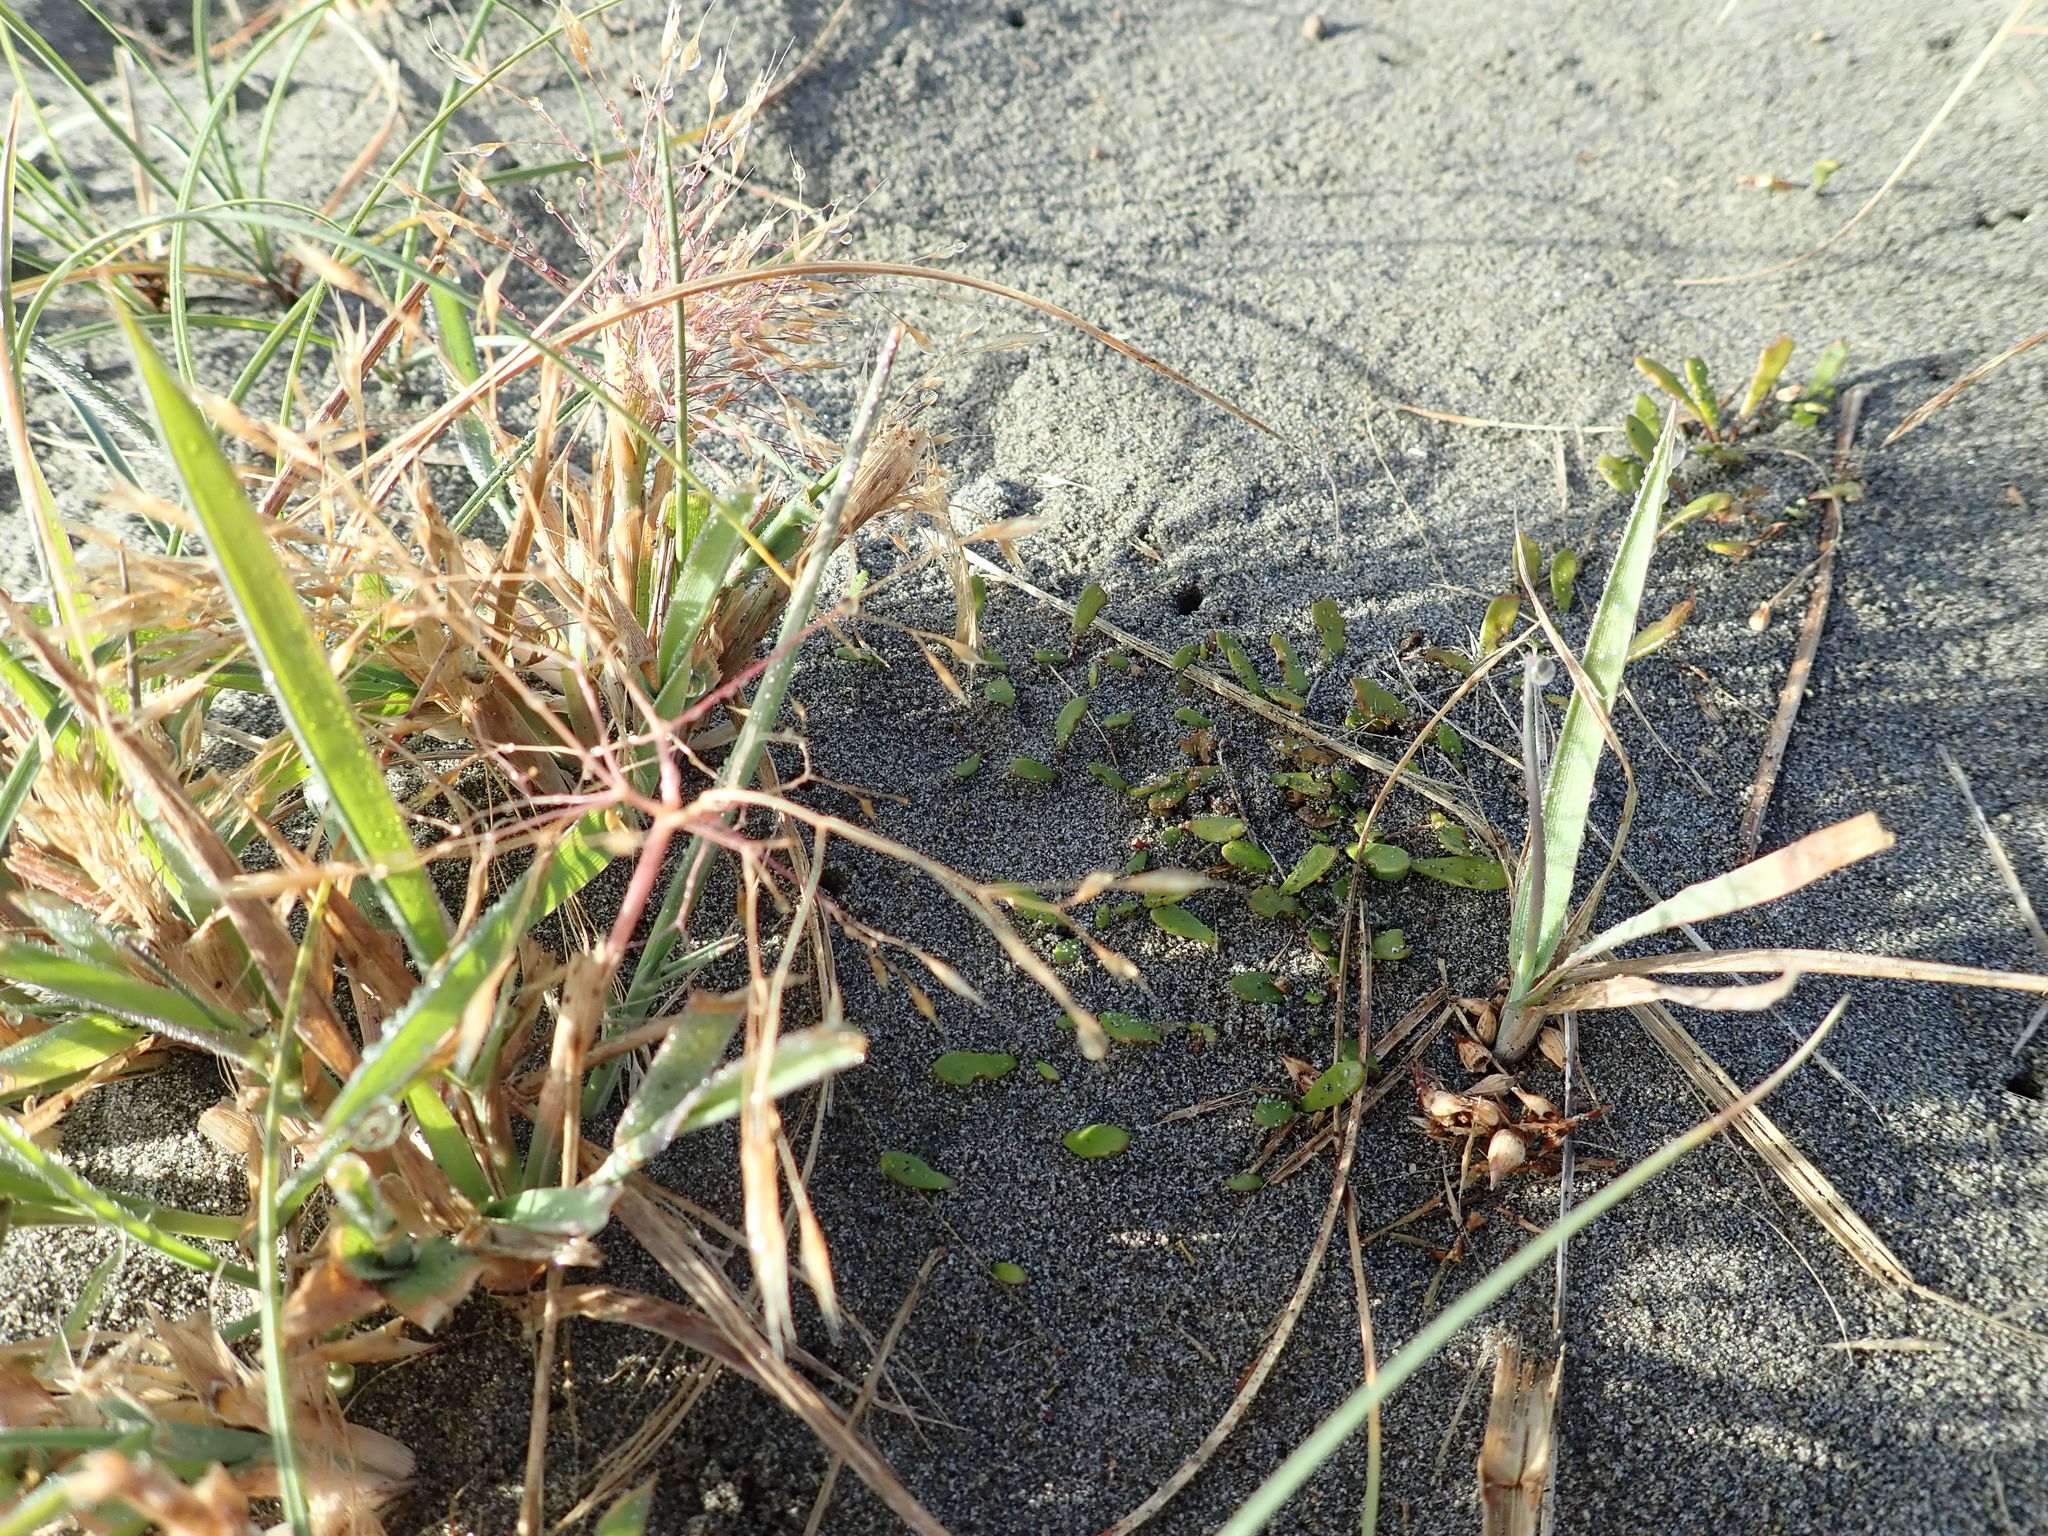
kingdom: Plantae
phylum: Tracheophyta
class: Liliopsida
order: Poales
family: Poaceae
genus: Lachnagrostis
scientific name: Lachnagrostis billardierei
